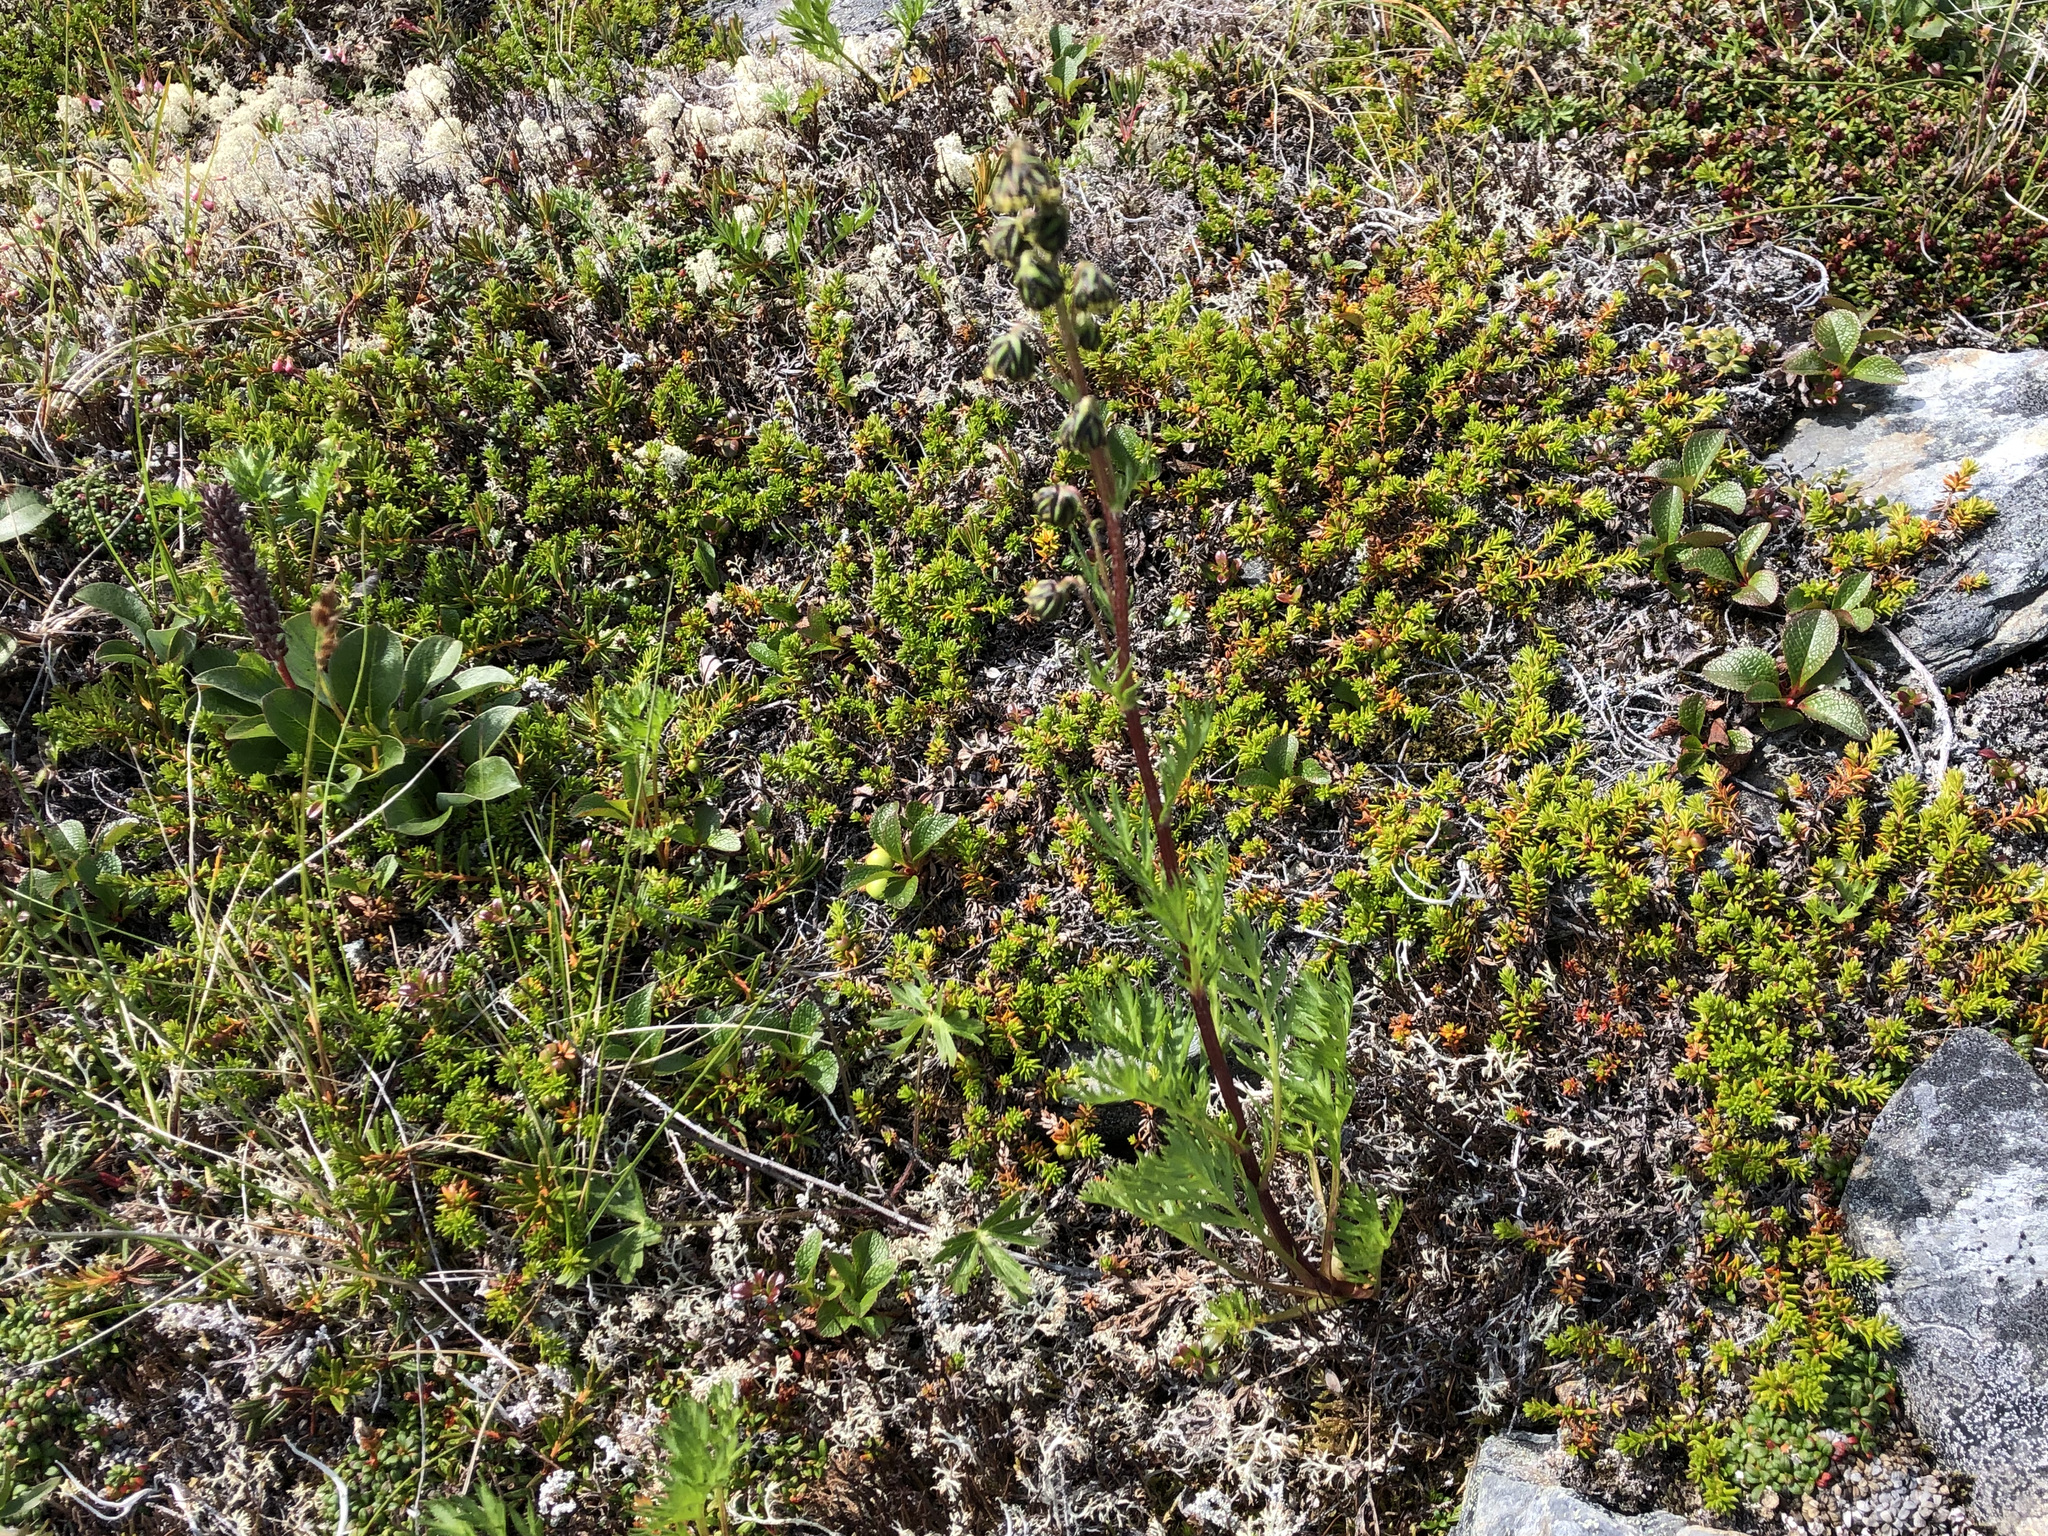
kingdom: Plantae
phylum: Tracheophyta
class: Magnoliopsida
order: Asterales
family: Asteraceae
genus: Artemisia
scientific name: Artemisia norvegica
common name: Norwegian mugwort
